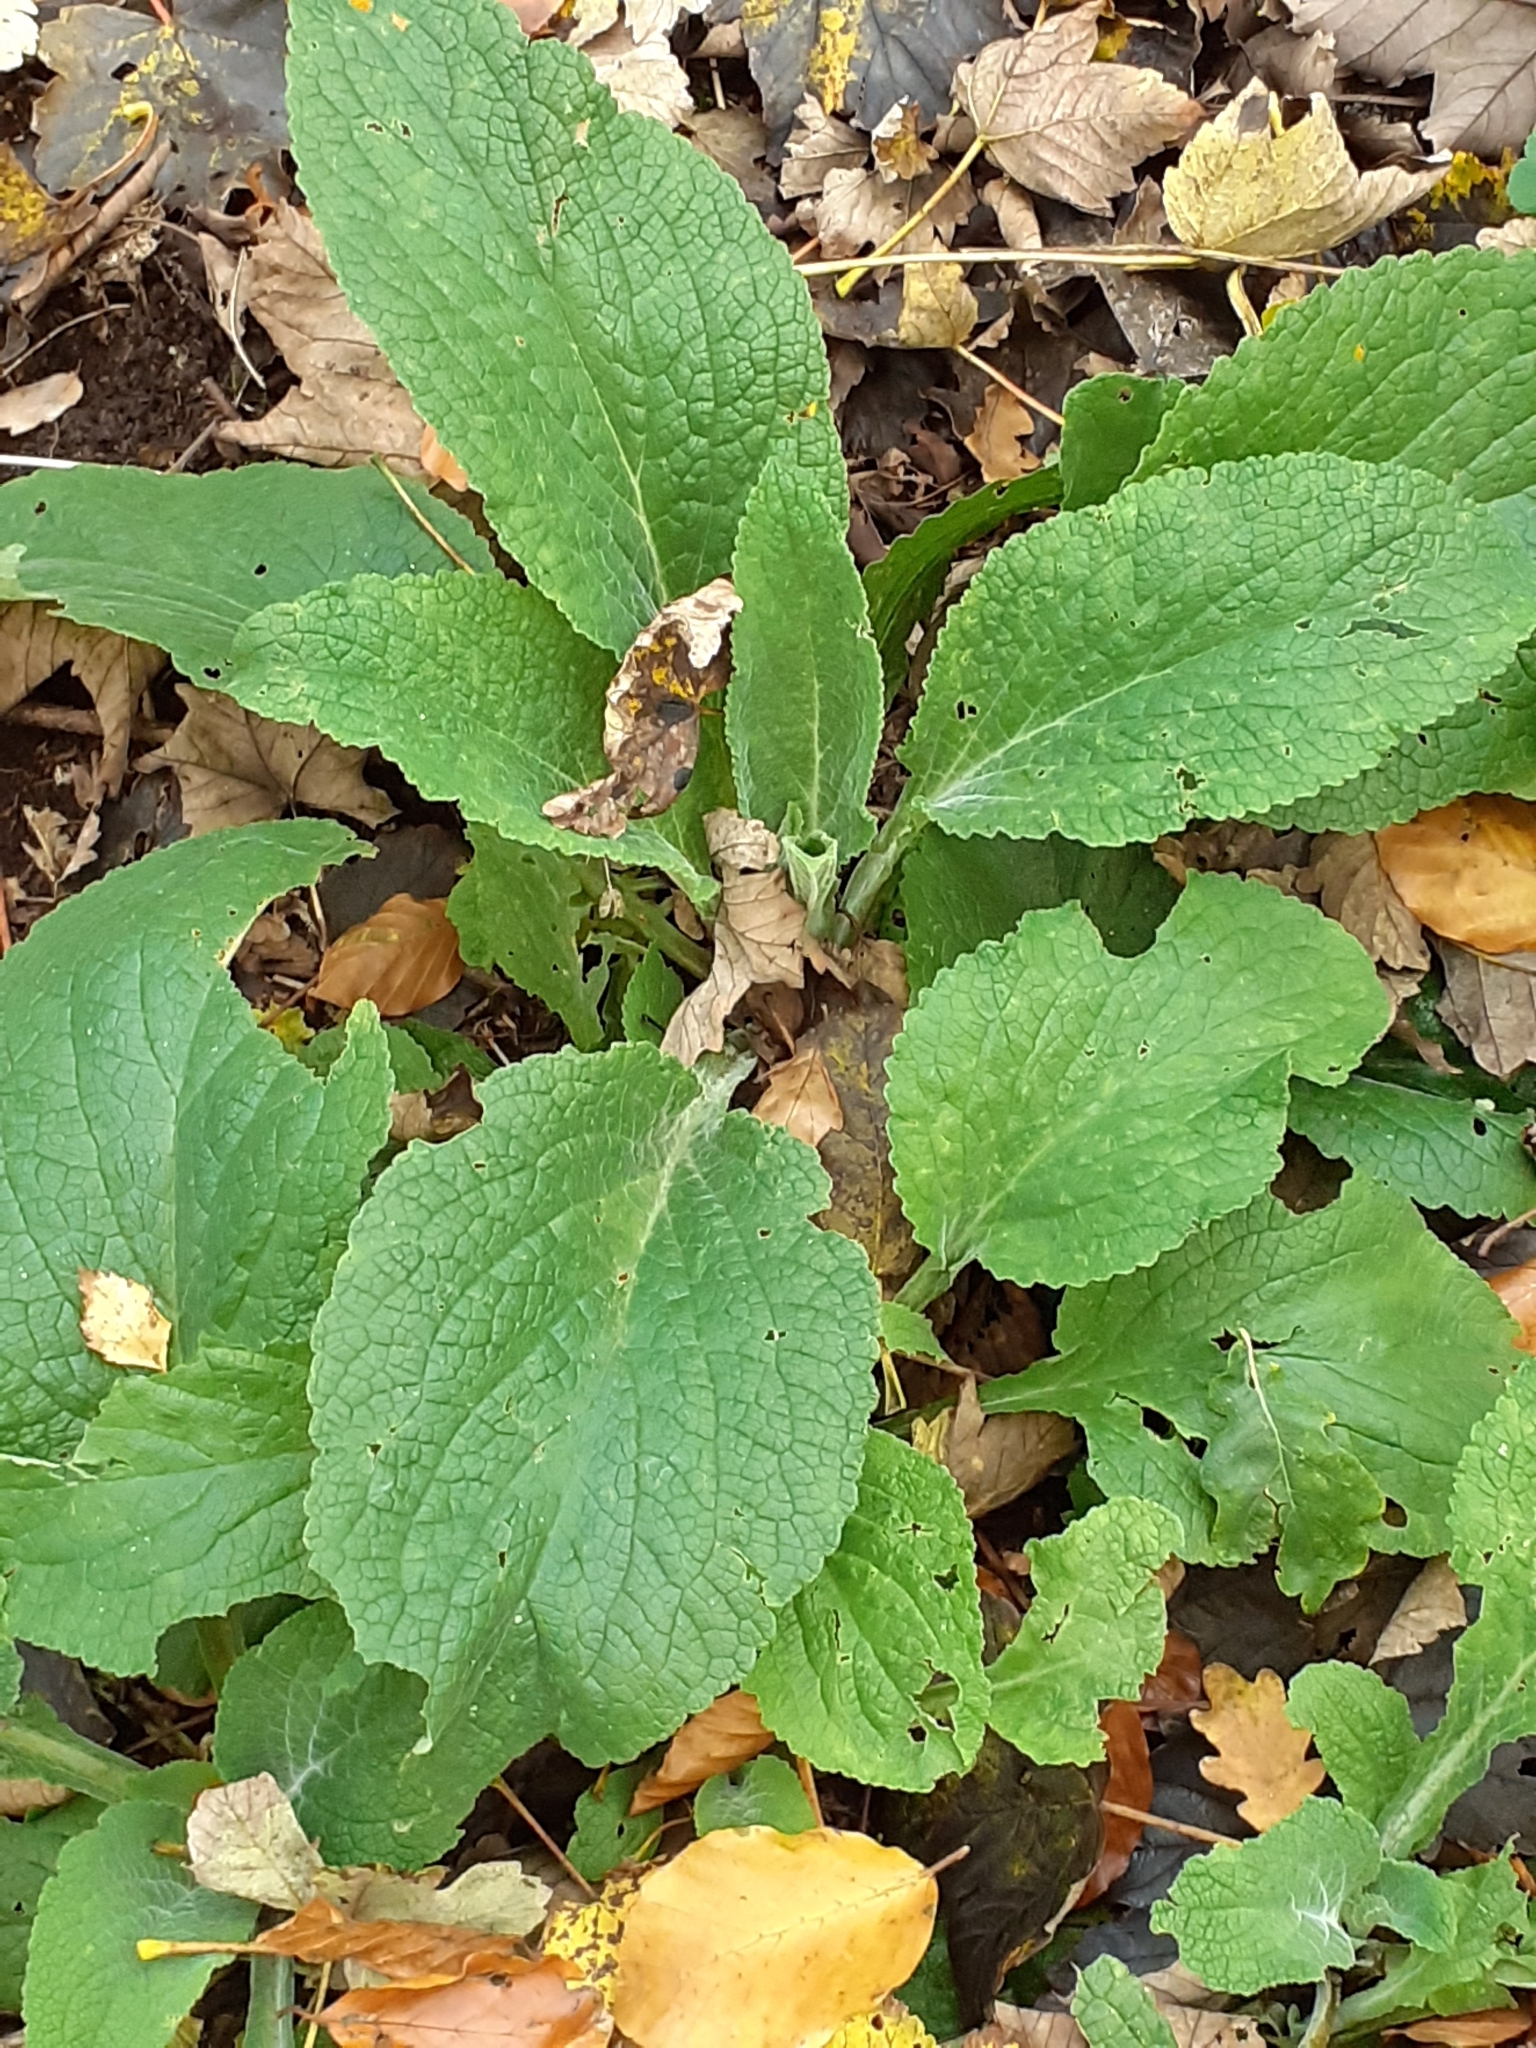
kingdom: Plantae
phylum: Tracheophyta
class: Magnoliopsida
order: Lamiales
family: Plantaginaceae
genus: Digitalis
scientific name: Digitalis purpurea
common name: Foxglove
